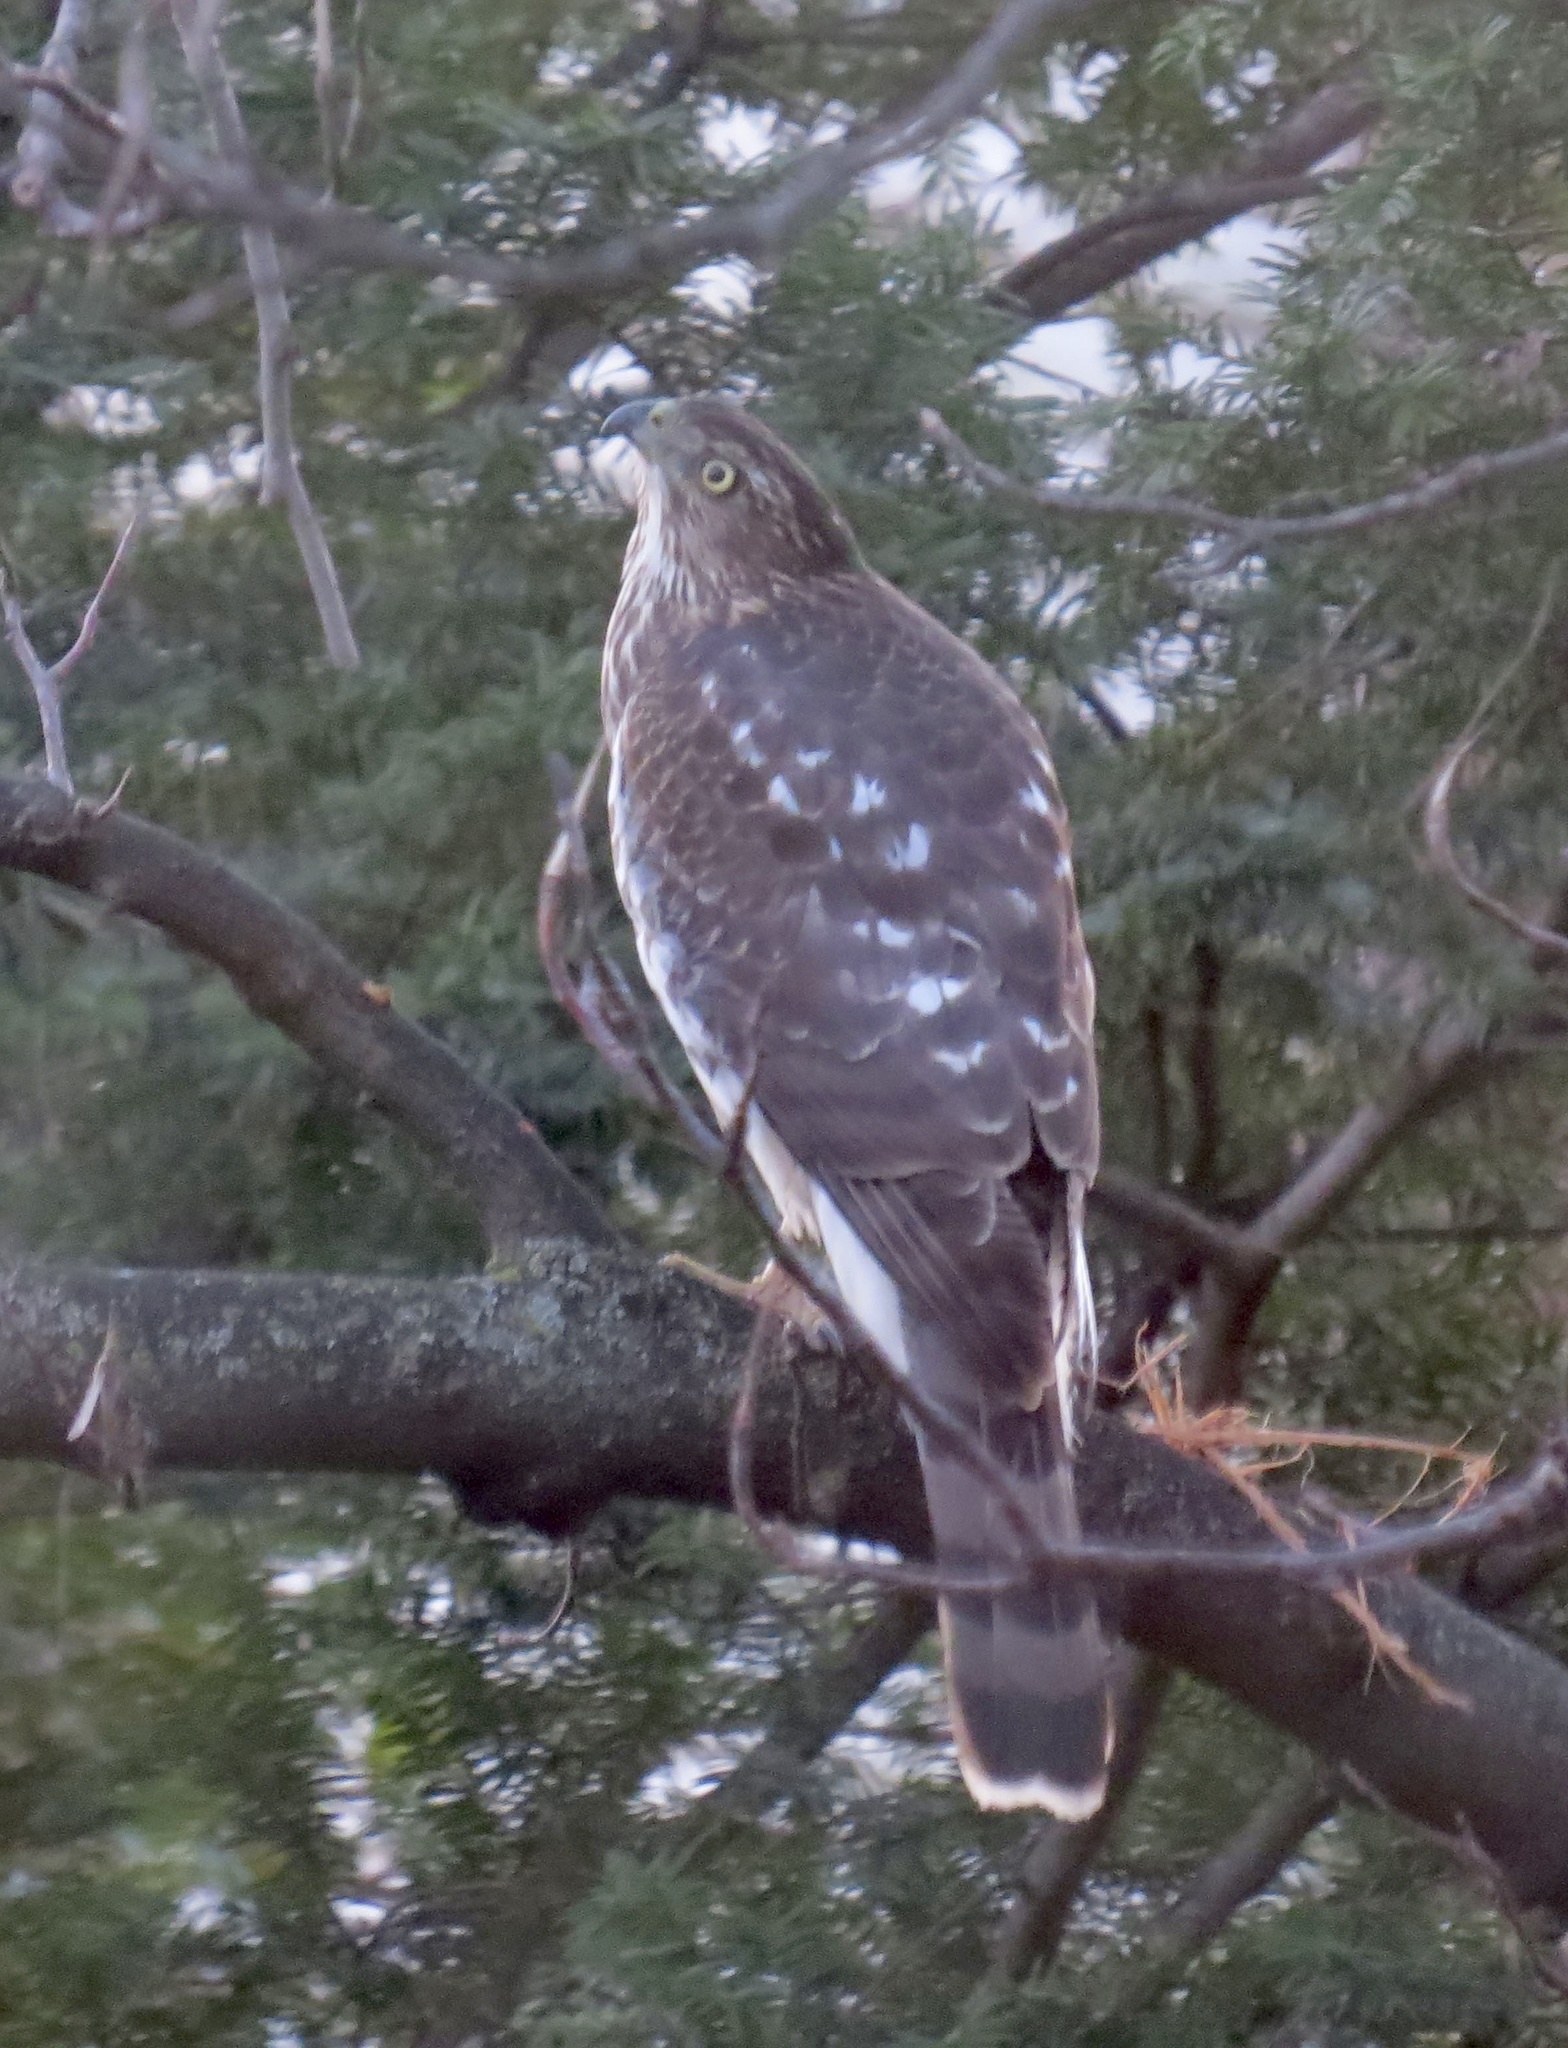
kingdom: Animalia
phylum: Chordata
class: Aves
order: Accipitriformes
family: Accipitridae
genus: Accipiter
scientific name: Accipiter cooperii
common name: Cooper's hawk
